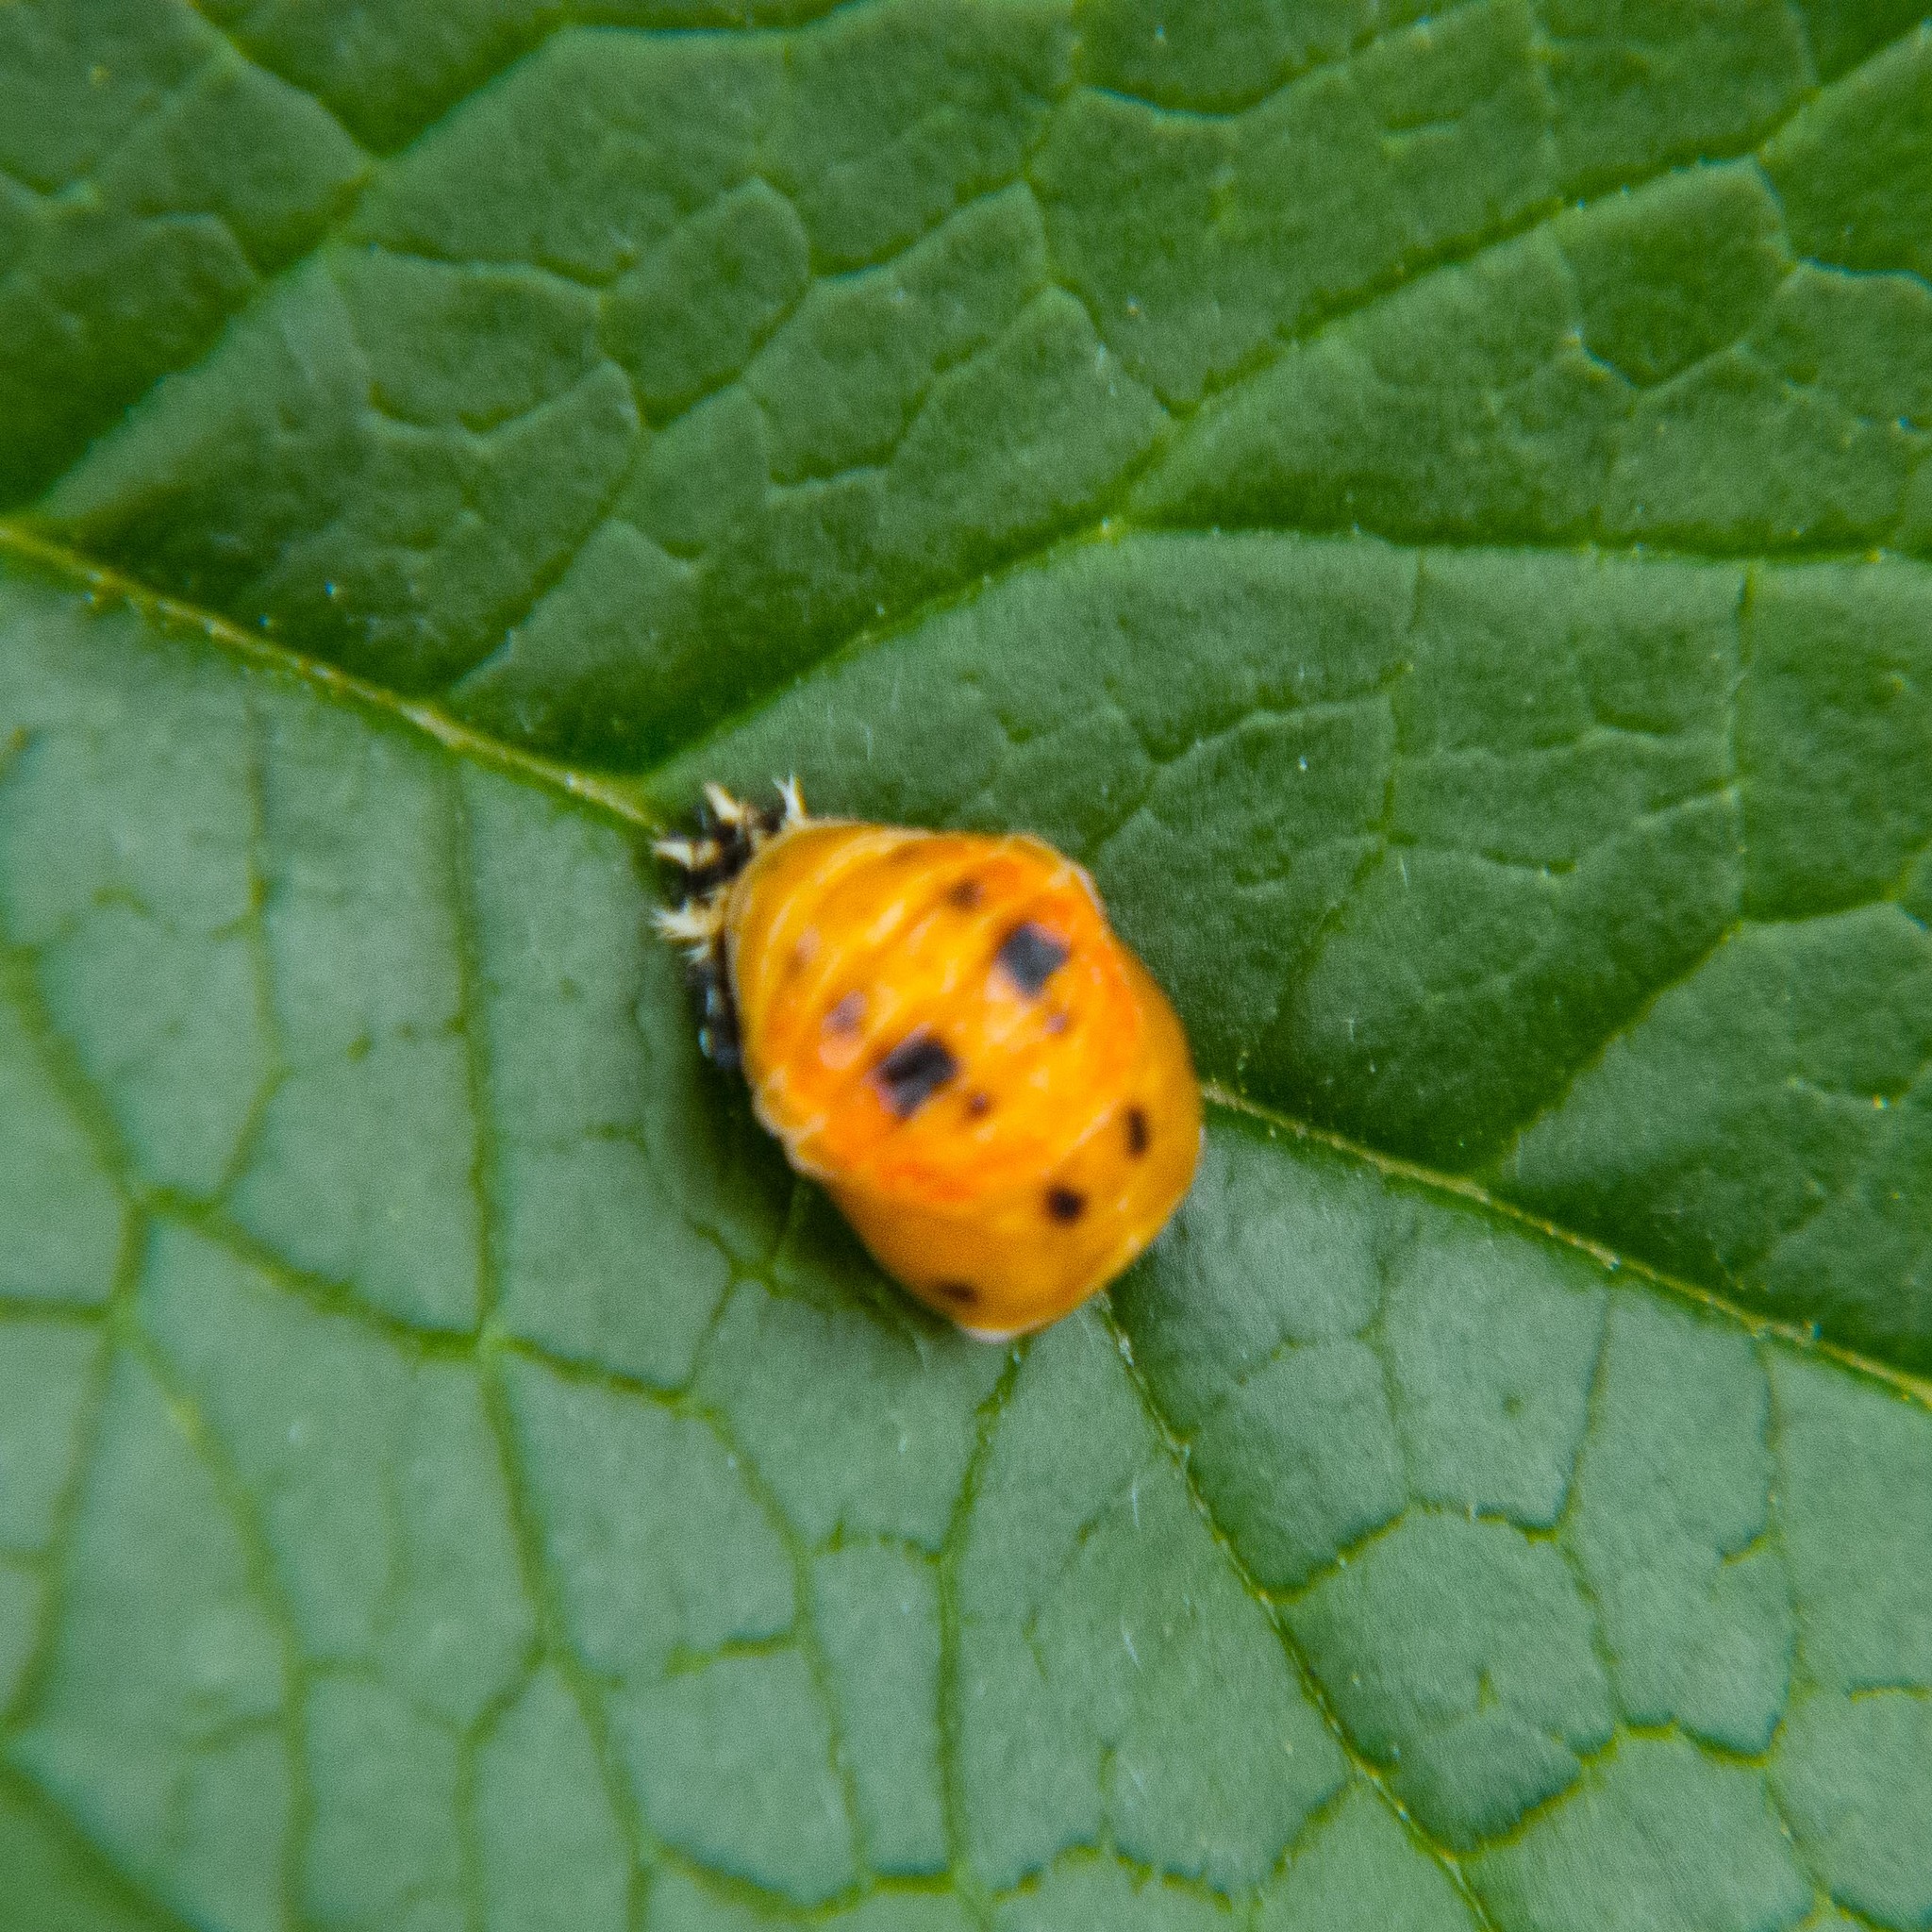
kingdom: Animalia
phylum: Arthropoda
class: Insecta
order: Coleoptera
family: Coccinellidae
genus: Harmonia
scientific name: Harmonia axyridis
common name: Harlequin ladybird
